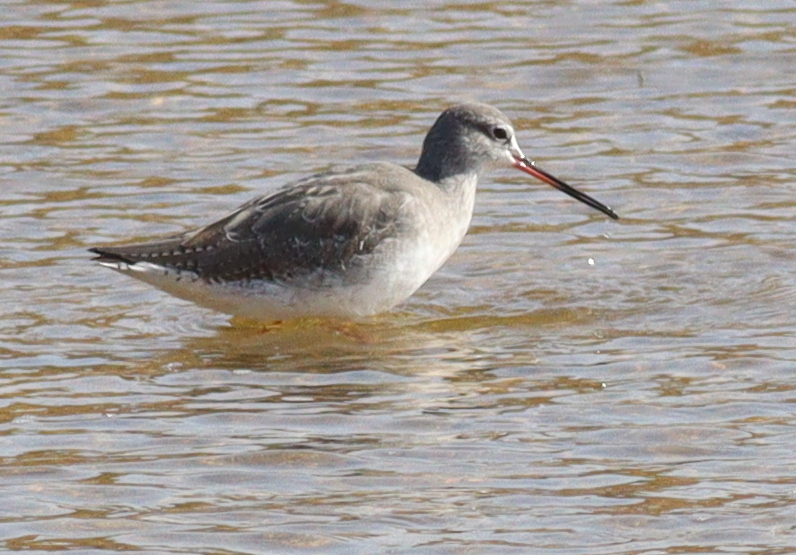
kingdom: Animalia
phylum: Chordata
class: Aves
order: Charadriiformes
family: Scolopacidae
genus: Tringa
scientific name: Tringa erythropus
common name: Spotted redshank
